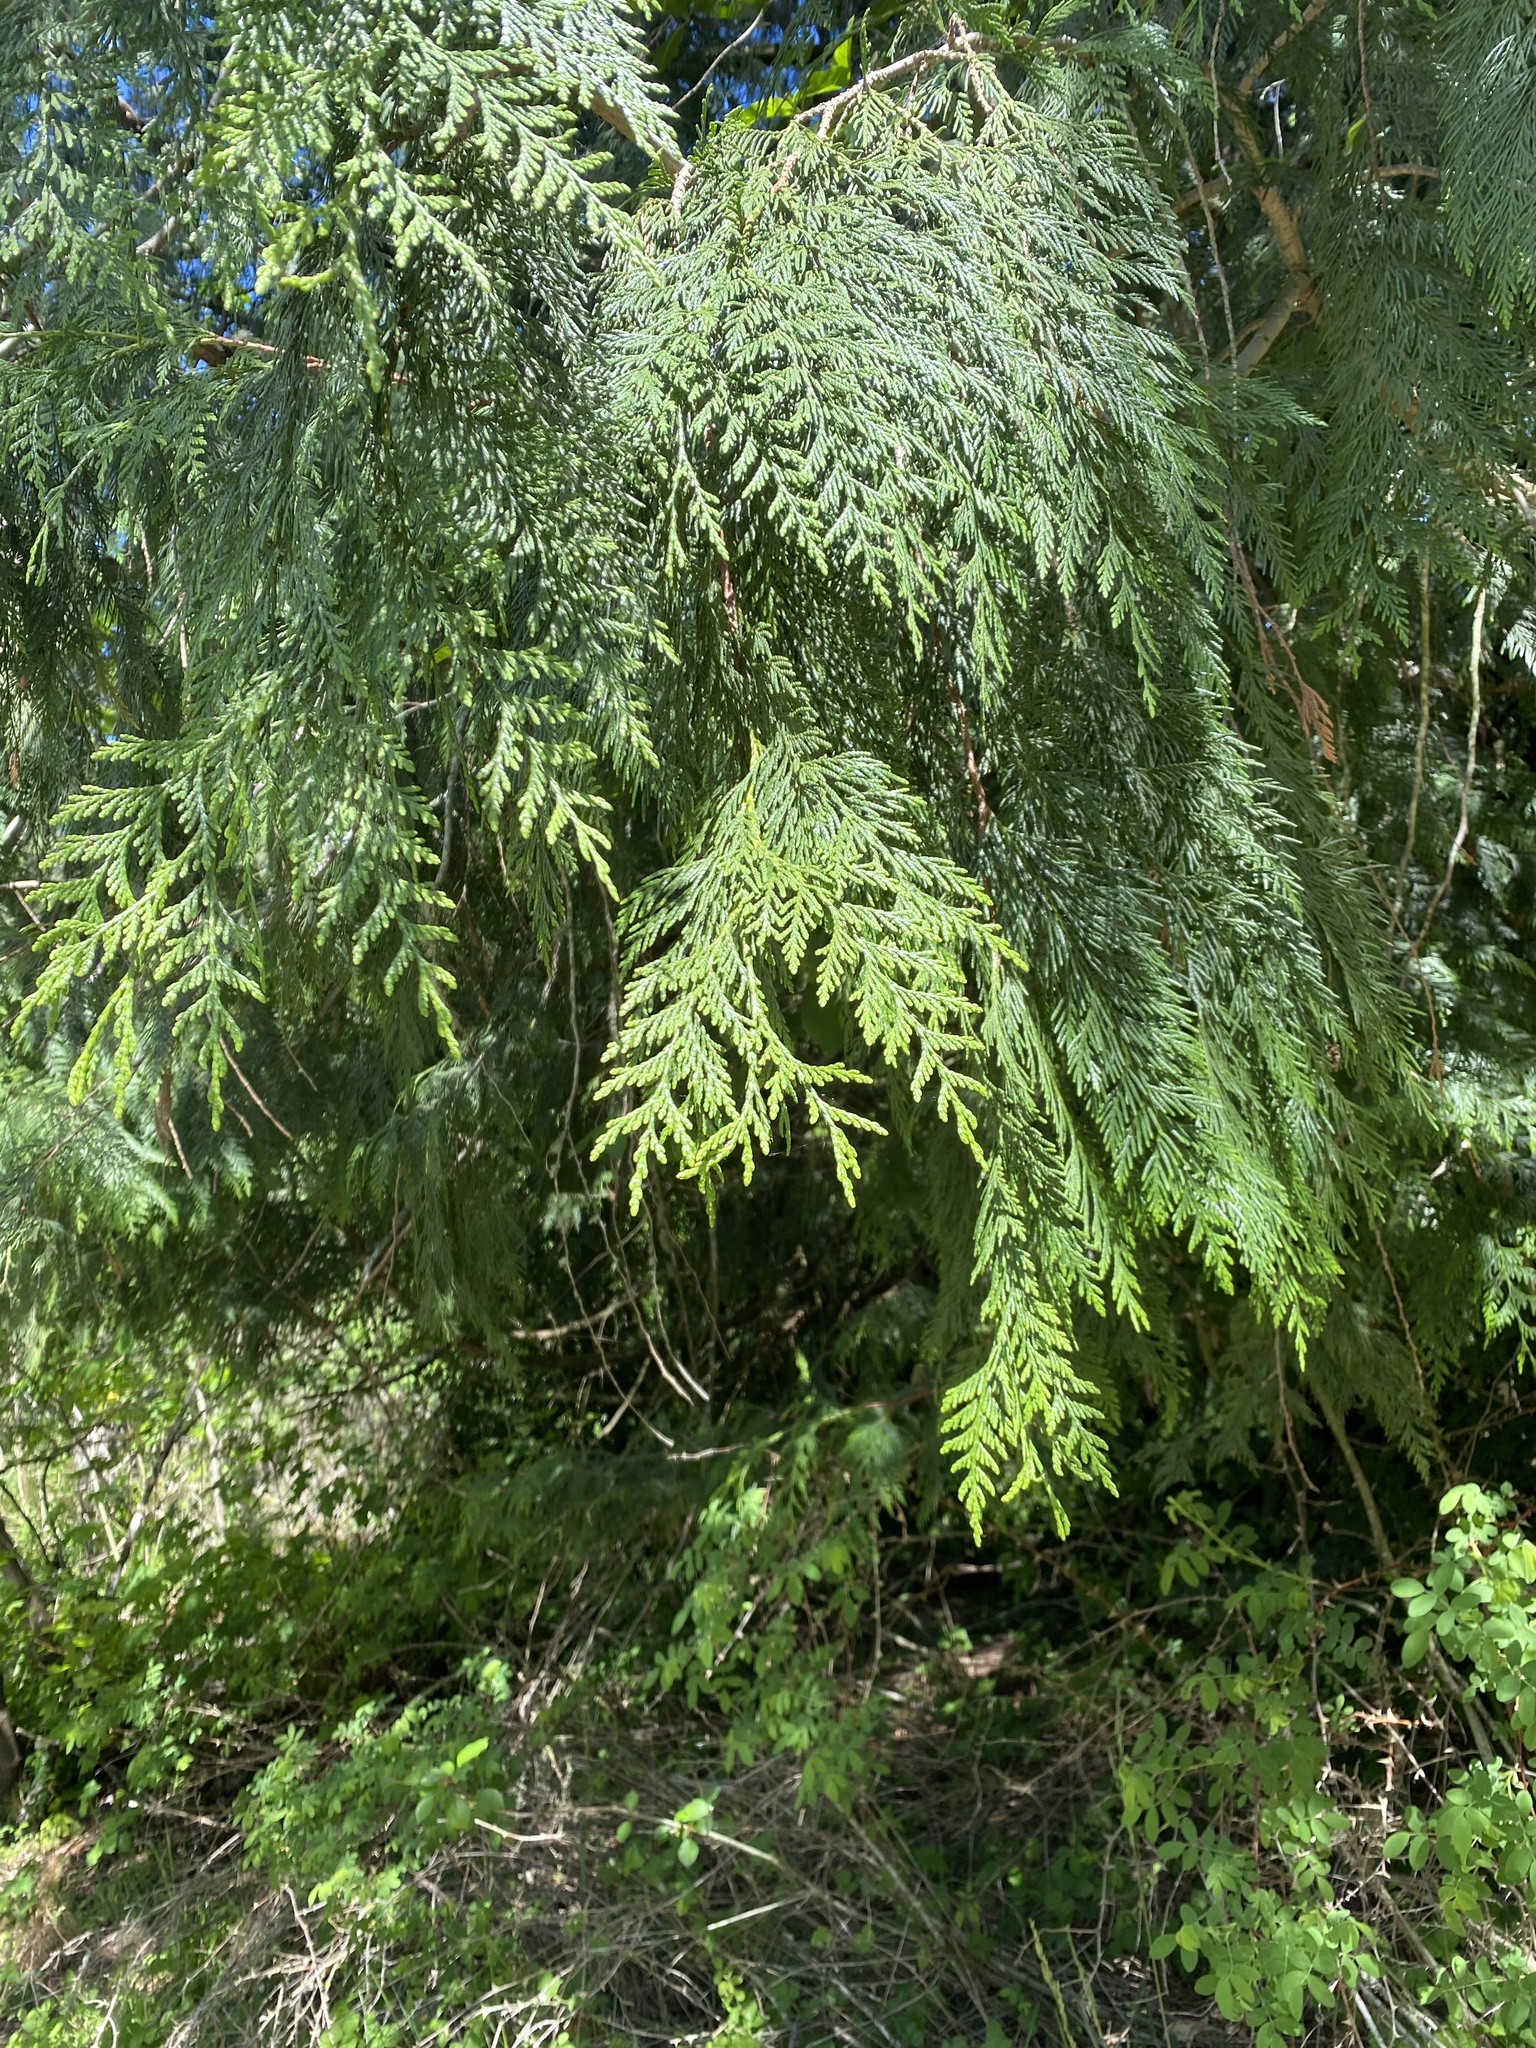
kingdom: Plantae
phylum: Tracheophyta
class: Pinopsida
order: Pinales
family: Cupressaceae
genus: Thuja
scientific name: Thuja plicata
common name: Western red-cedar
